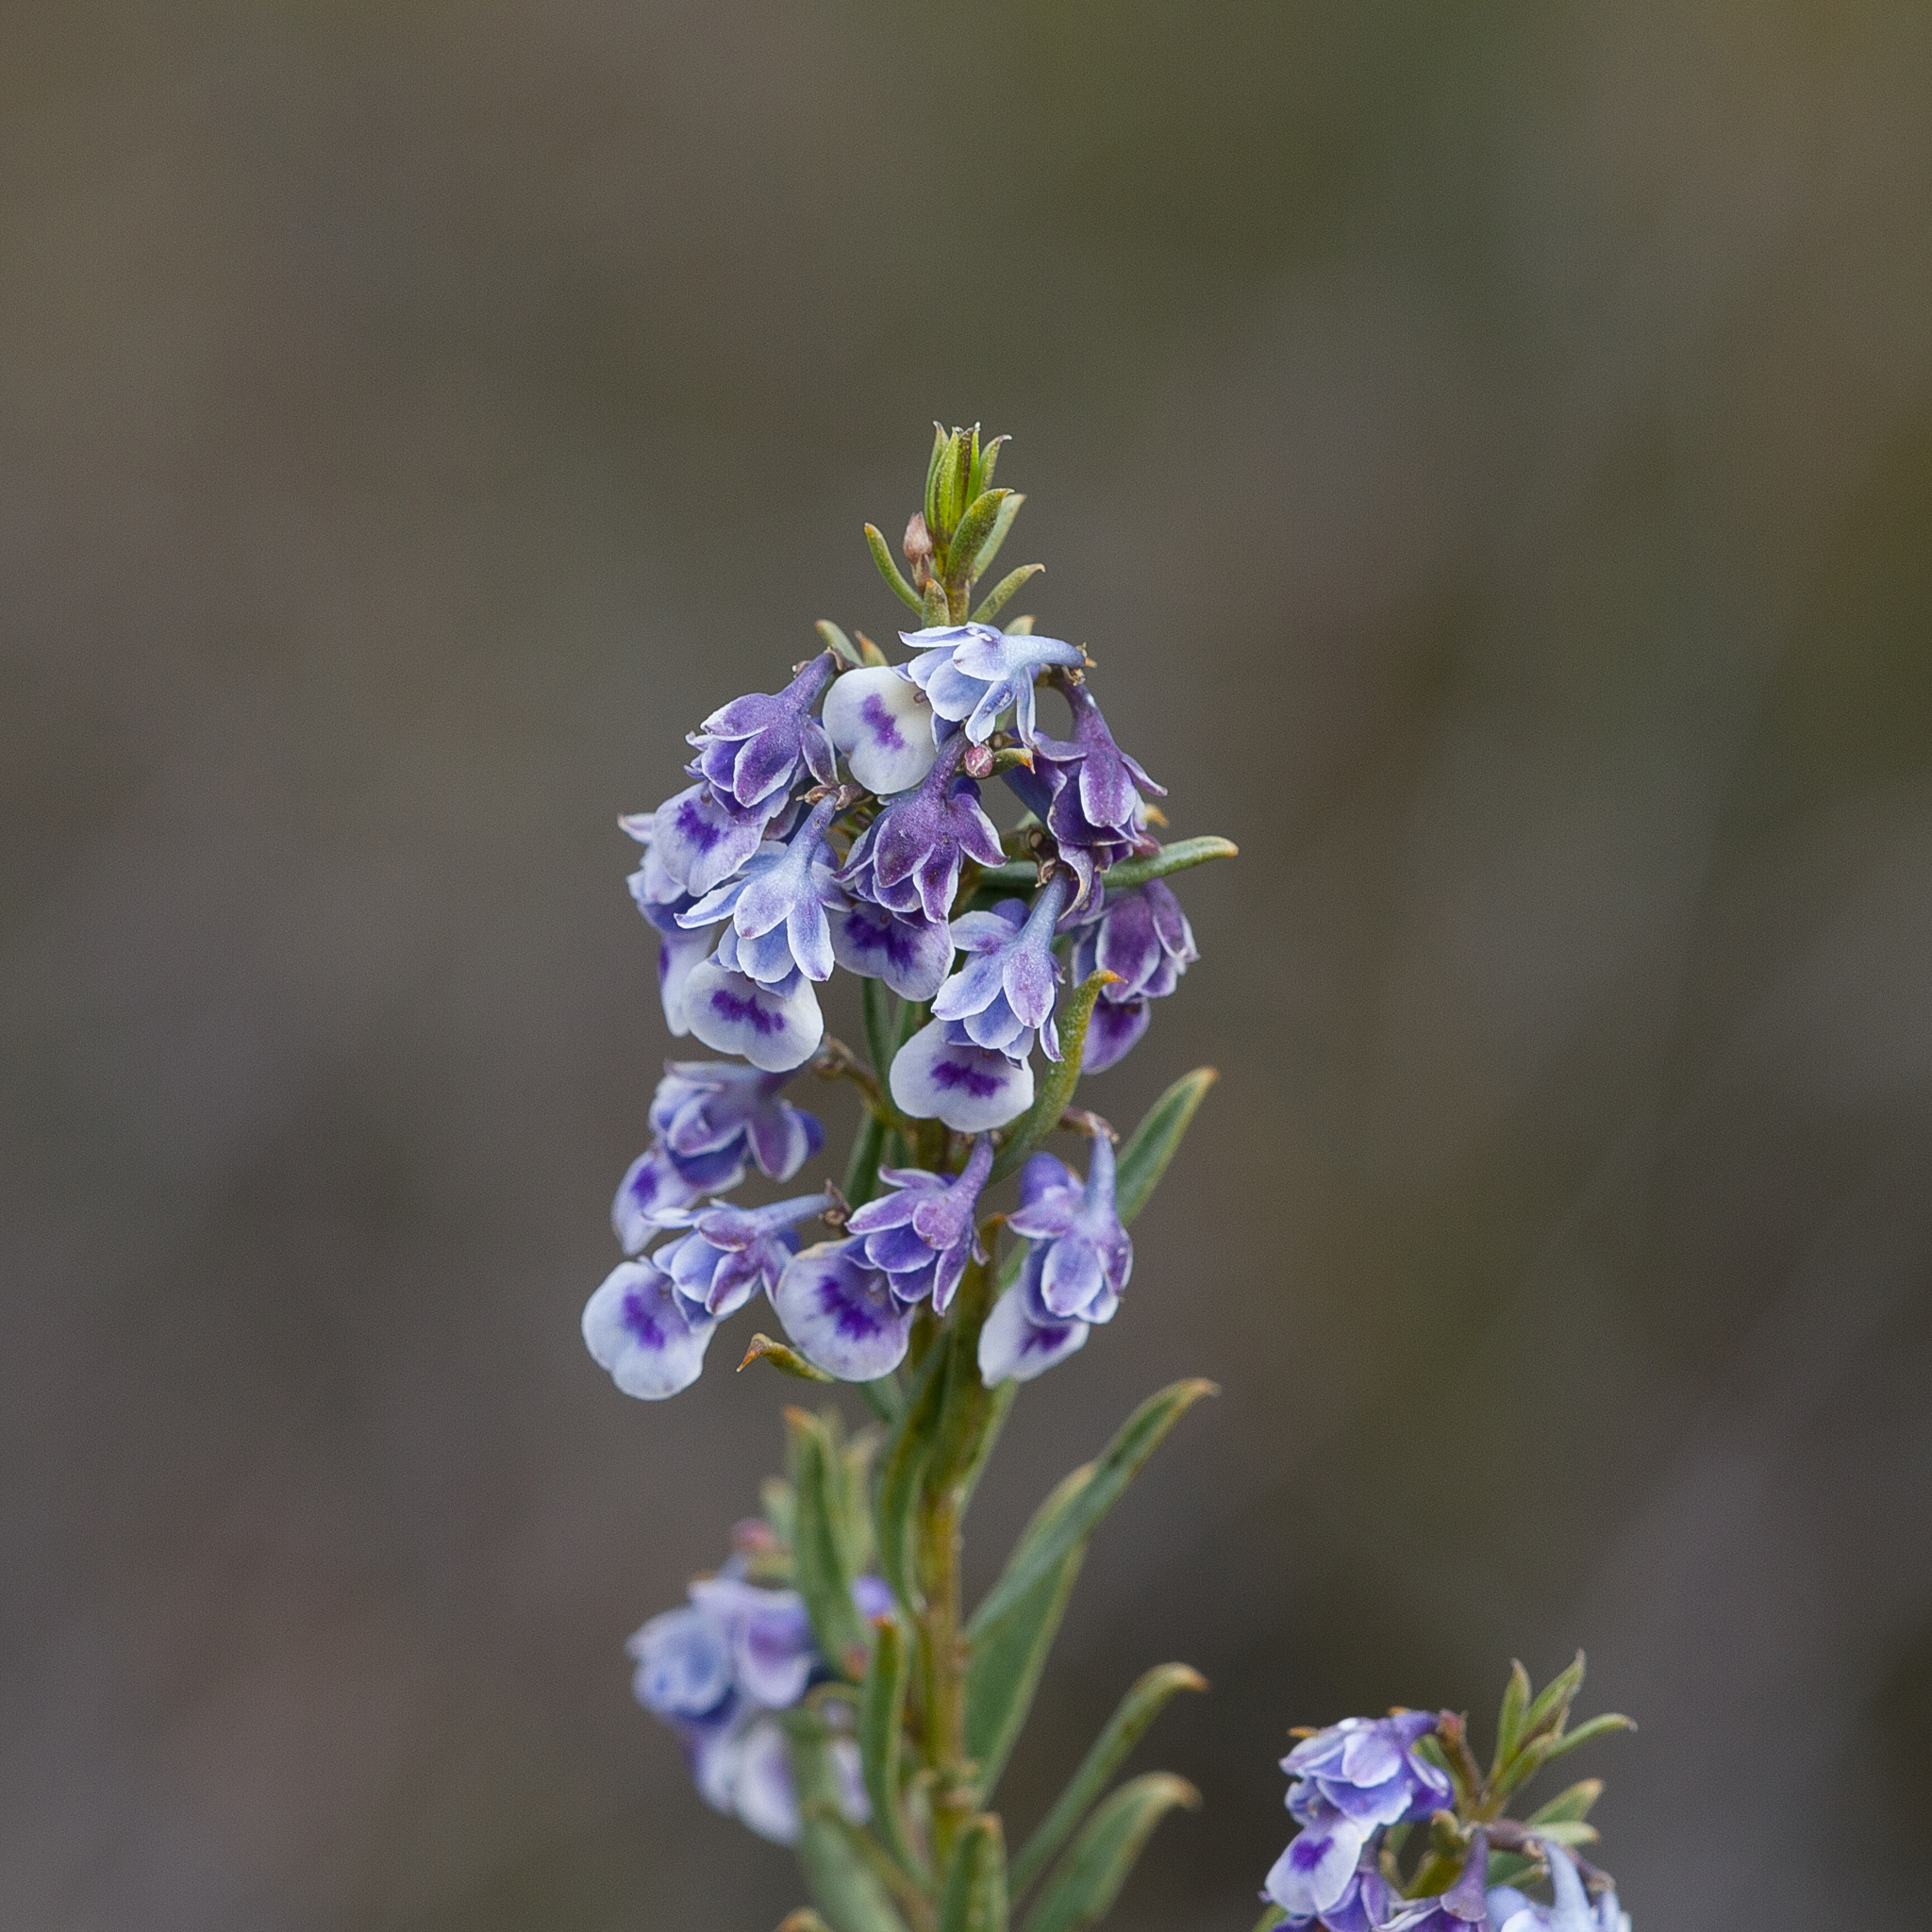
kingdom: Plantae
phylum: Tracheophyta
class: Magnoliopsida
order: Malpighiales
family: Violaceae
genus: Pigea
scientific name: Pigea floribunda
